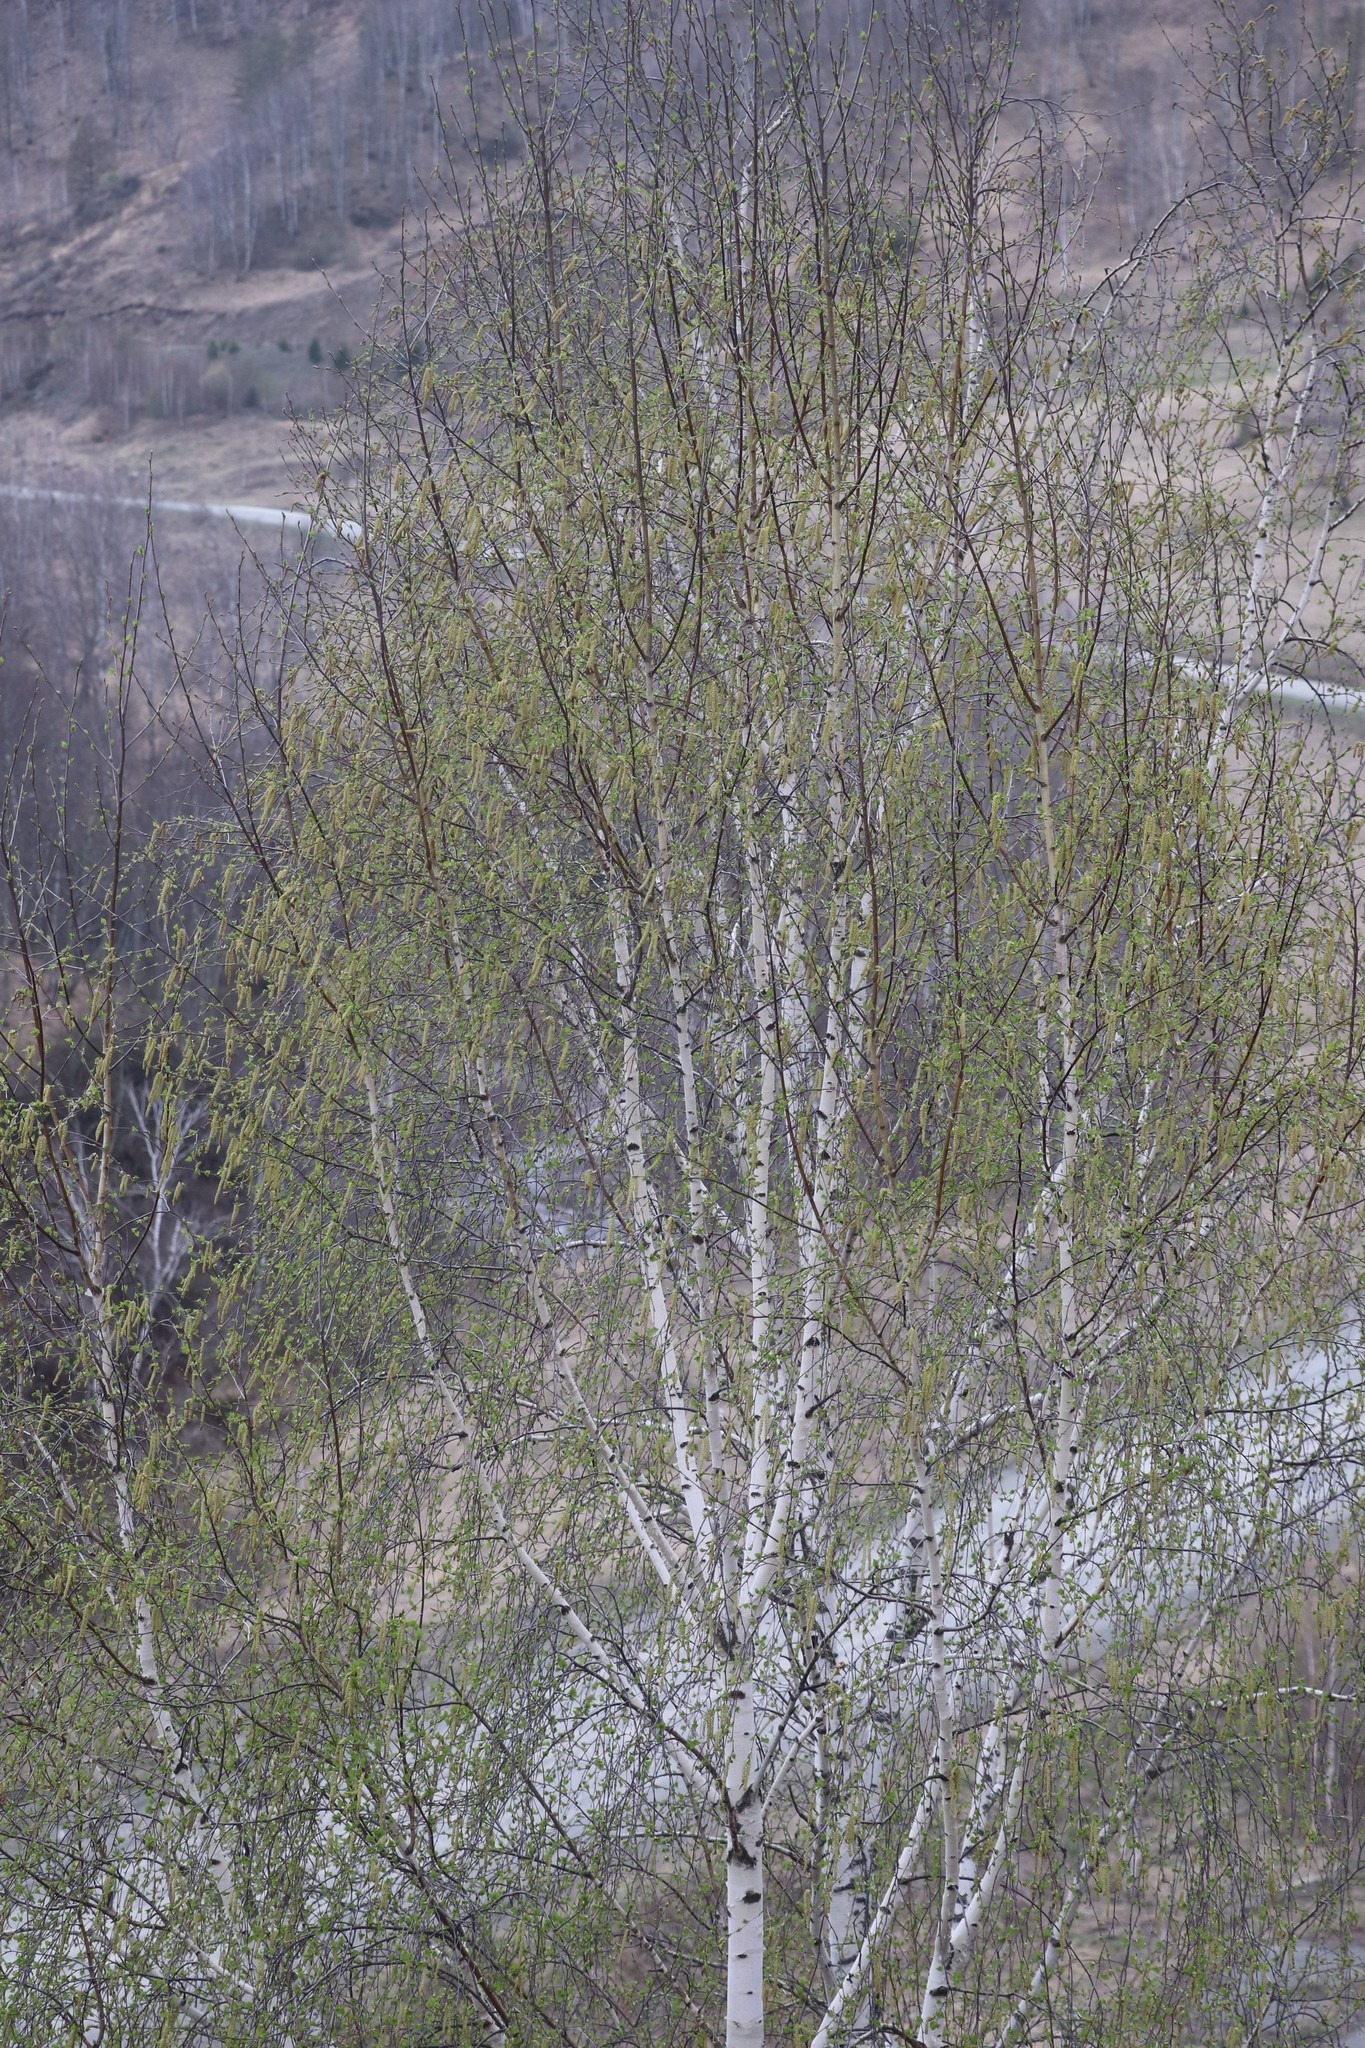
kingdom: Plantae
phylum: Tracheophyta
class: Magnoliopsida
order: Fagales
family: Betulaceae
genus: Betula
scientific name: Betula pendula
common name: Silver birch
